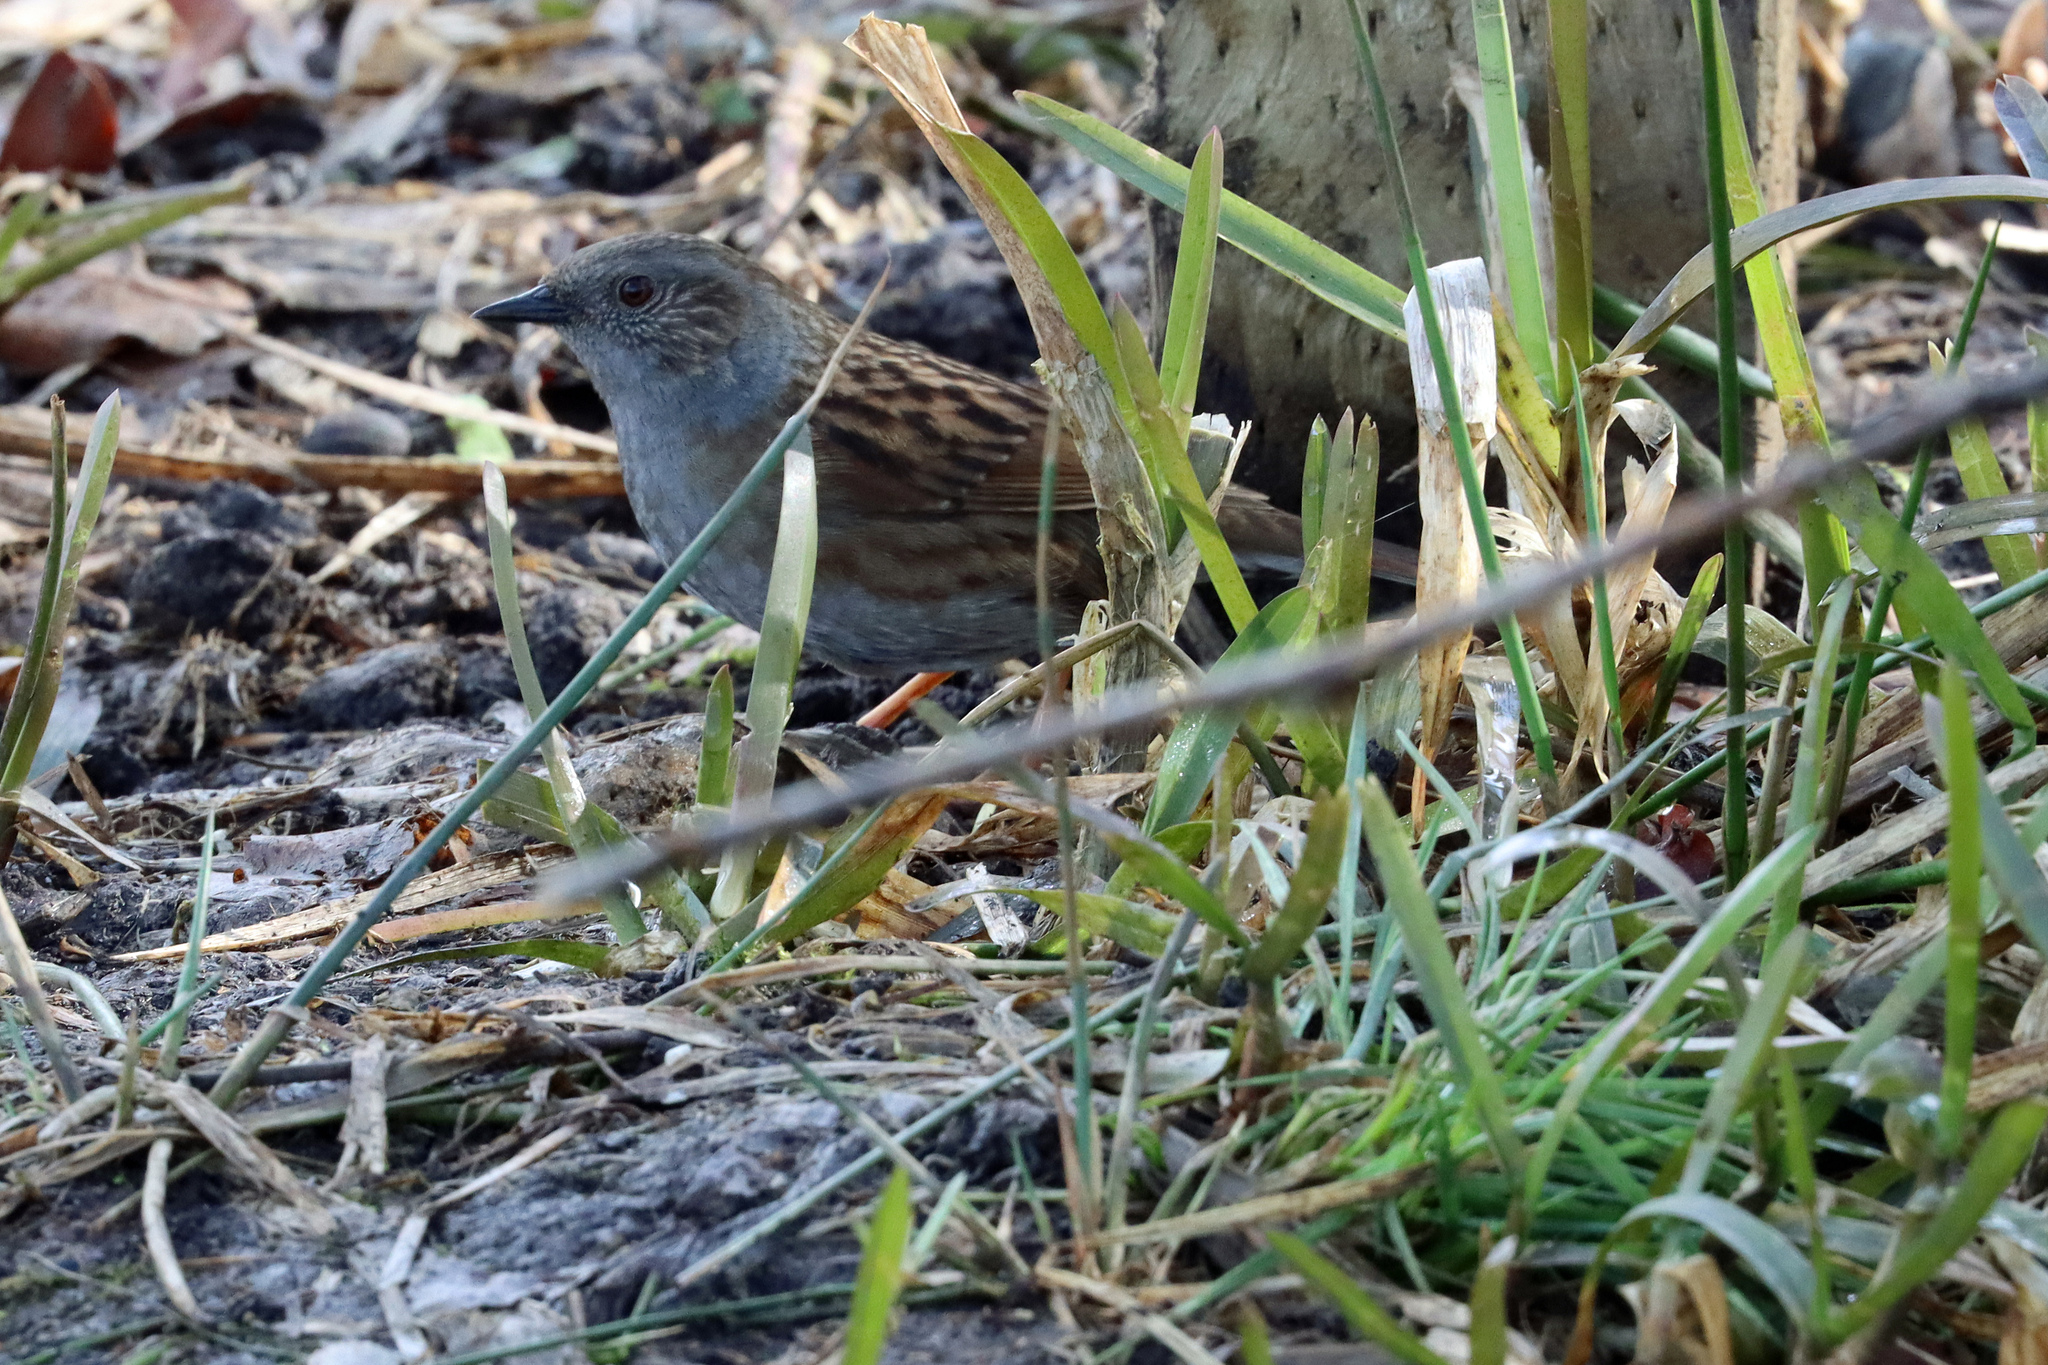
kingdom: Animalia
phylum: Chordata
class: Aves
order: Passeriformes
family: Prunellidae
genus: Prunella
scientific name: Prunella modularis
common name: Dunnock
